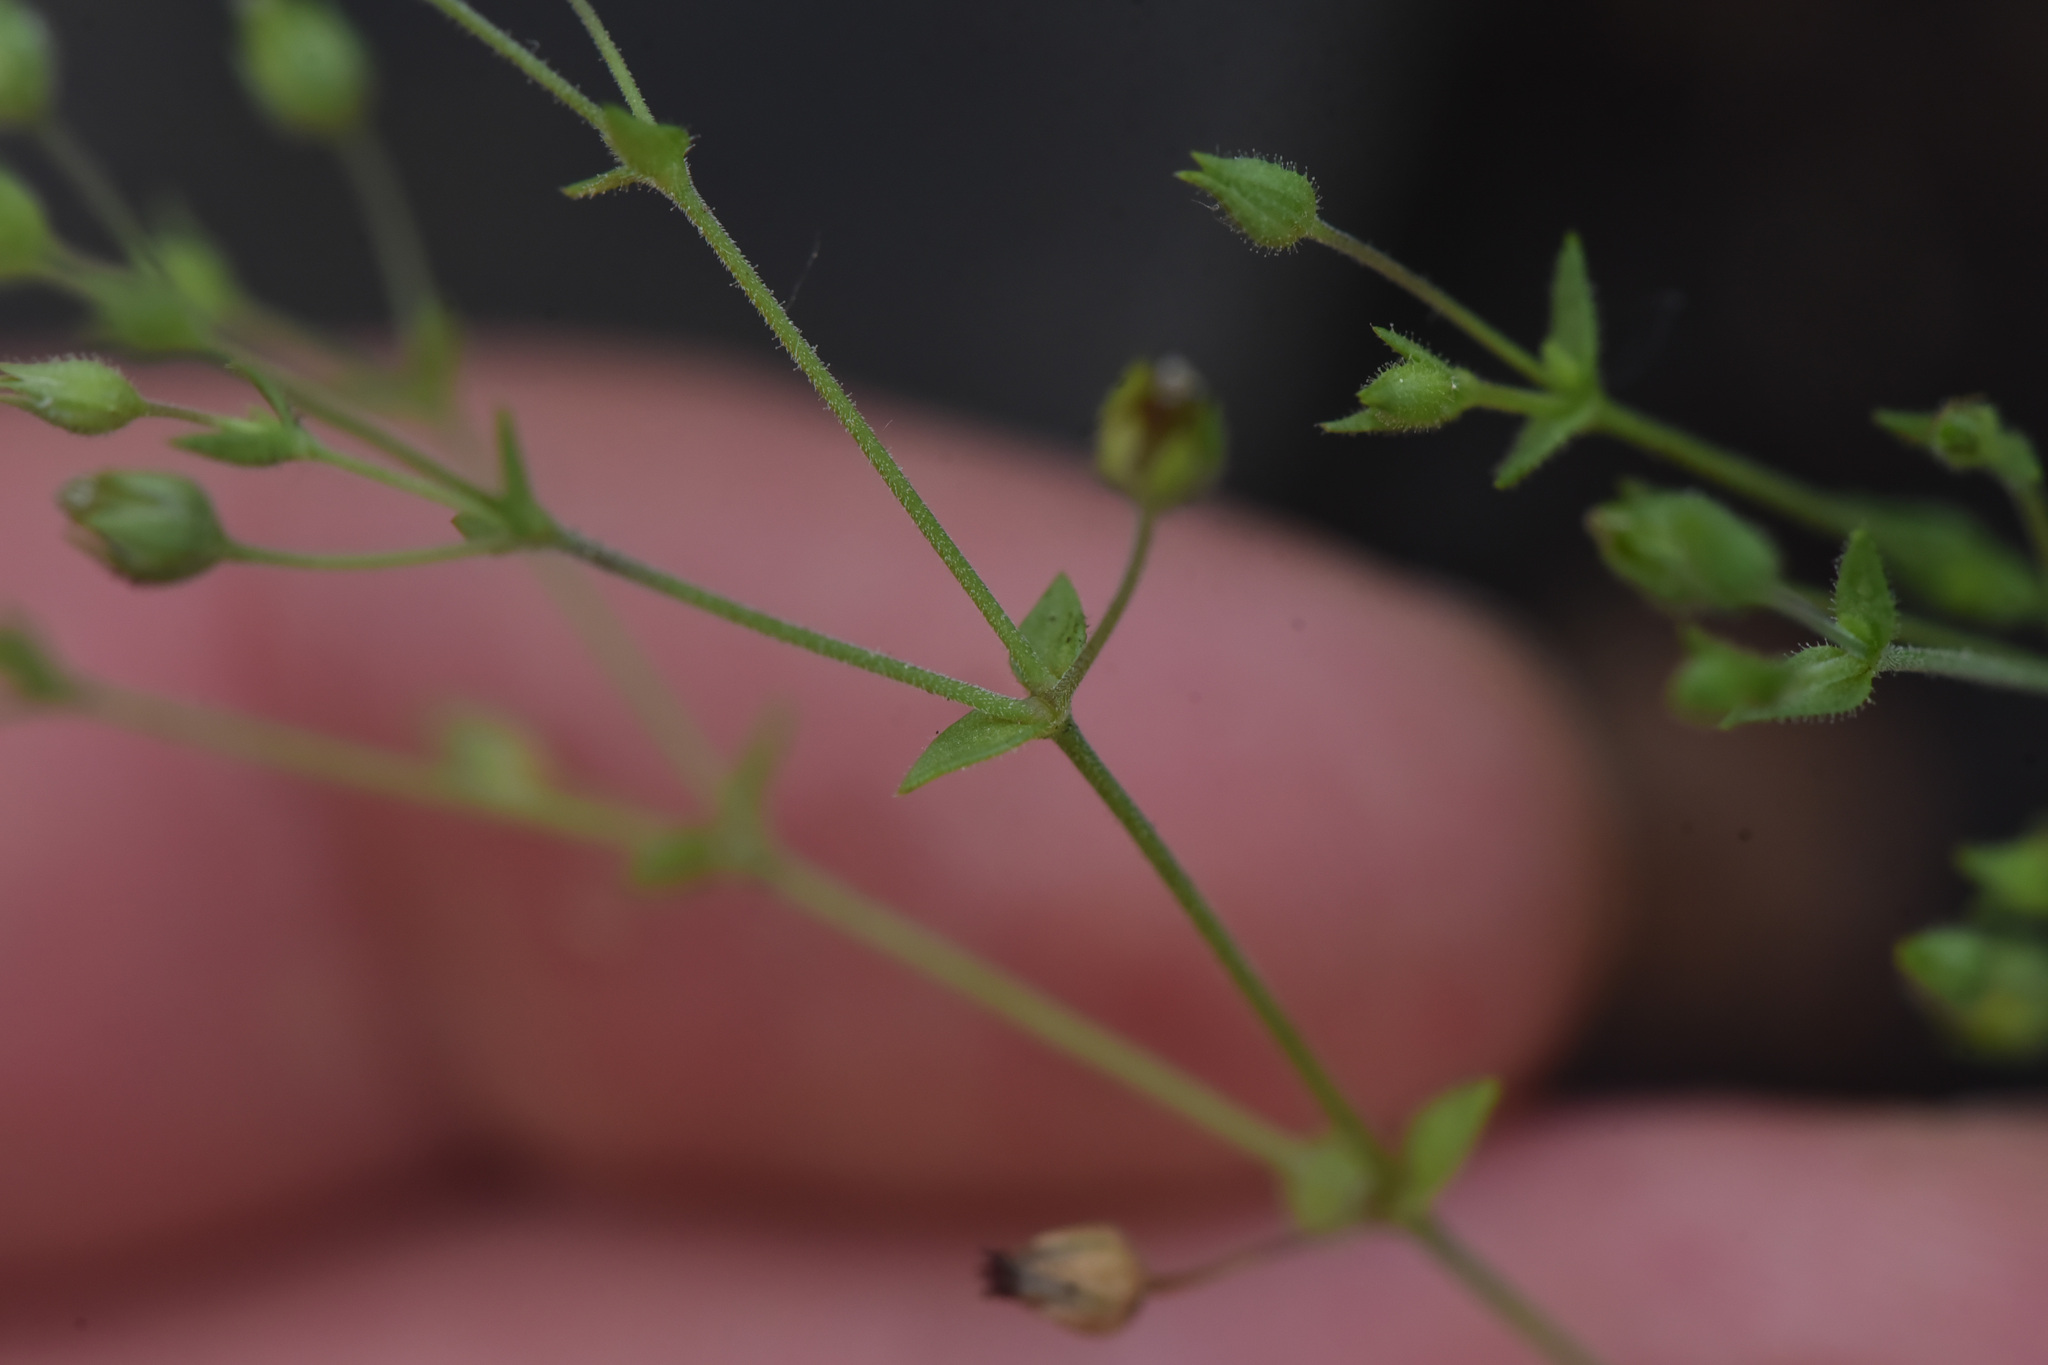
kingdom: Plantae
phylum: Tracheophyta
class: Magnoliopsida
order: Caryophyllales
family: Caryophyllaceae
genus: Arenaria
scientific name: Arenaria serpyllifolia
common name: Thyme-leaved sandwort
